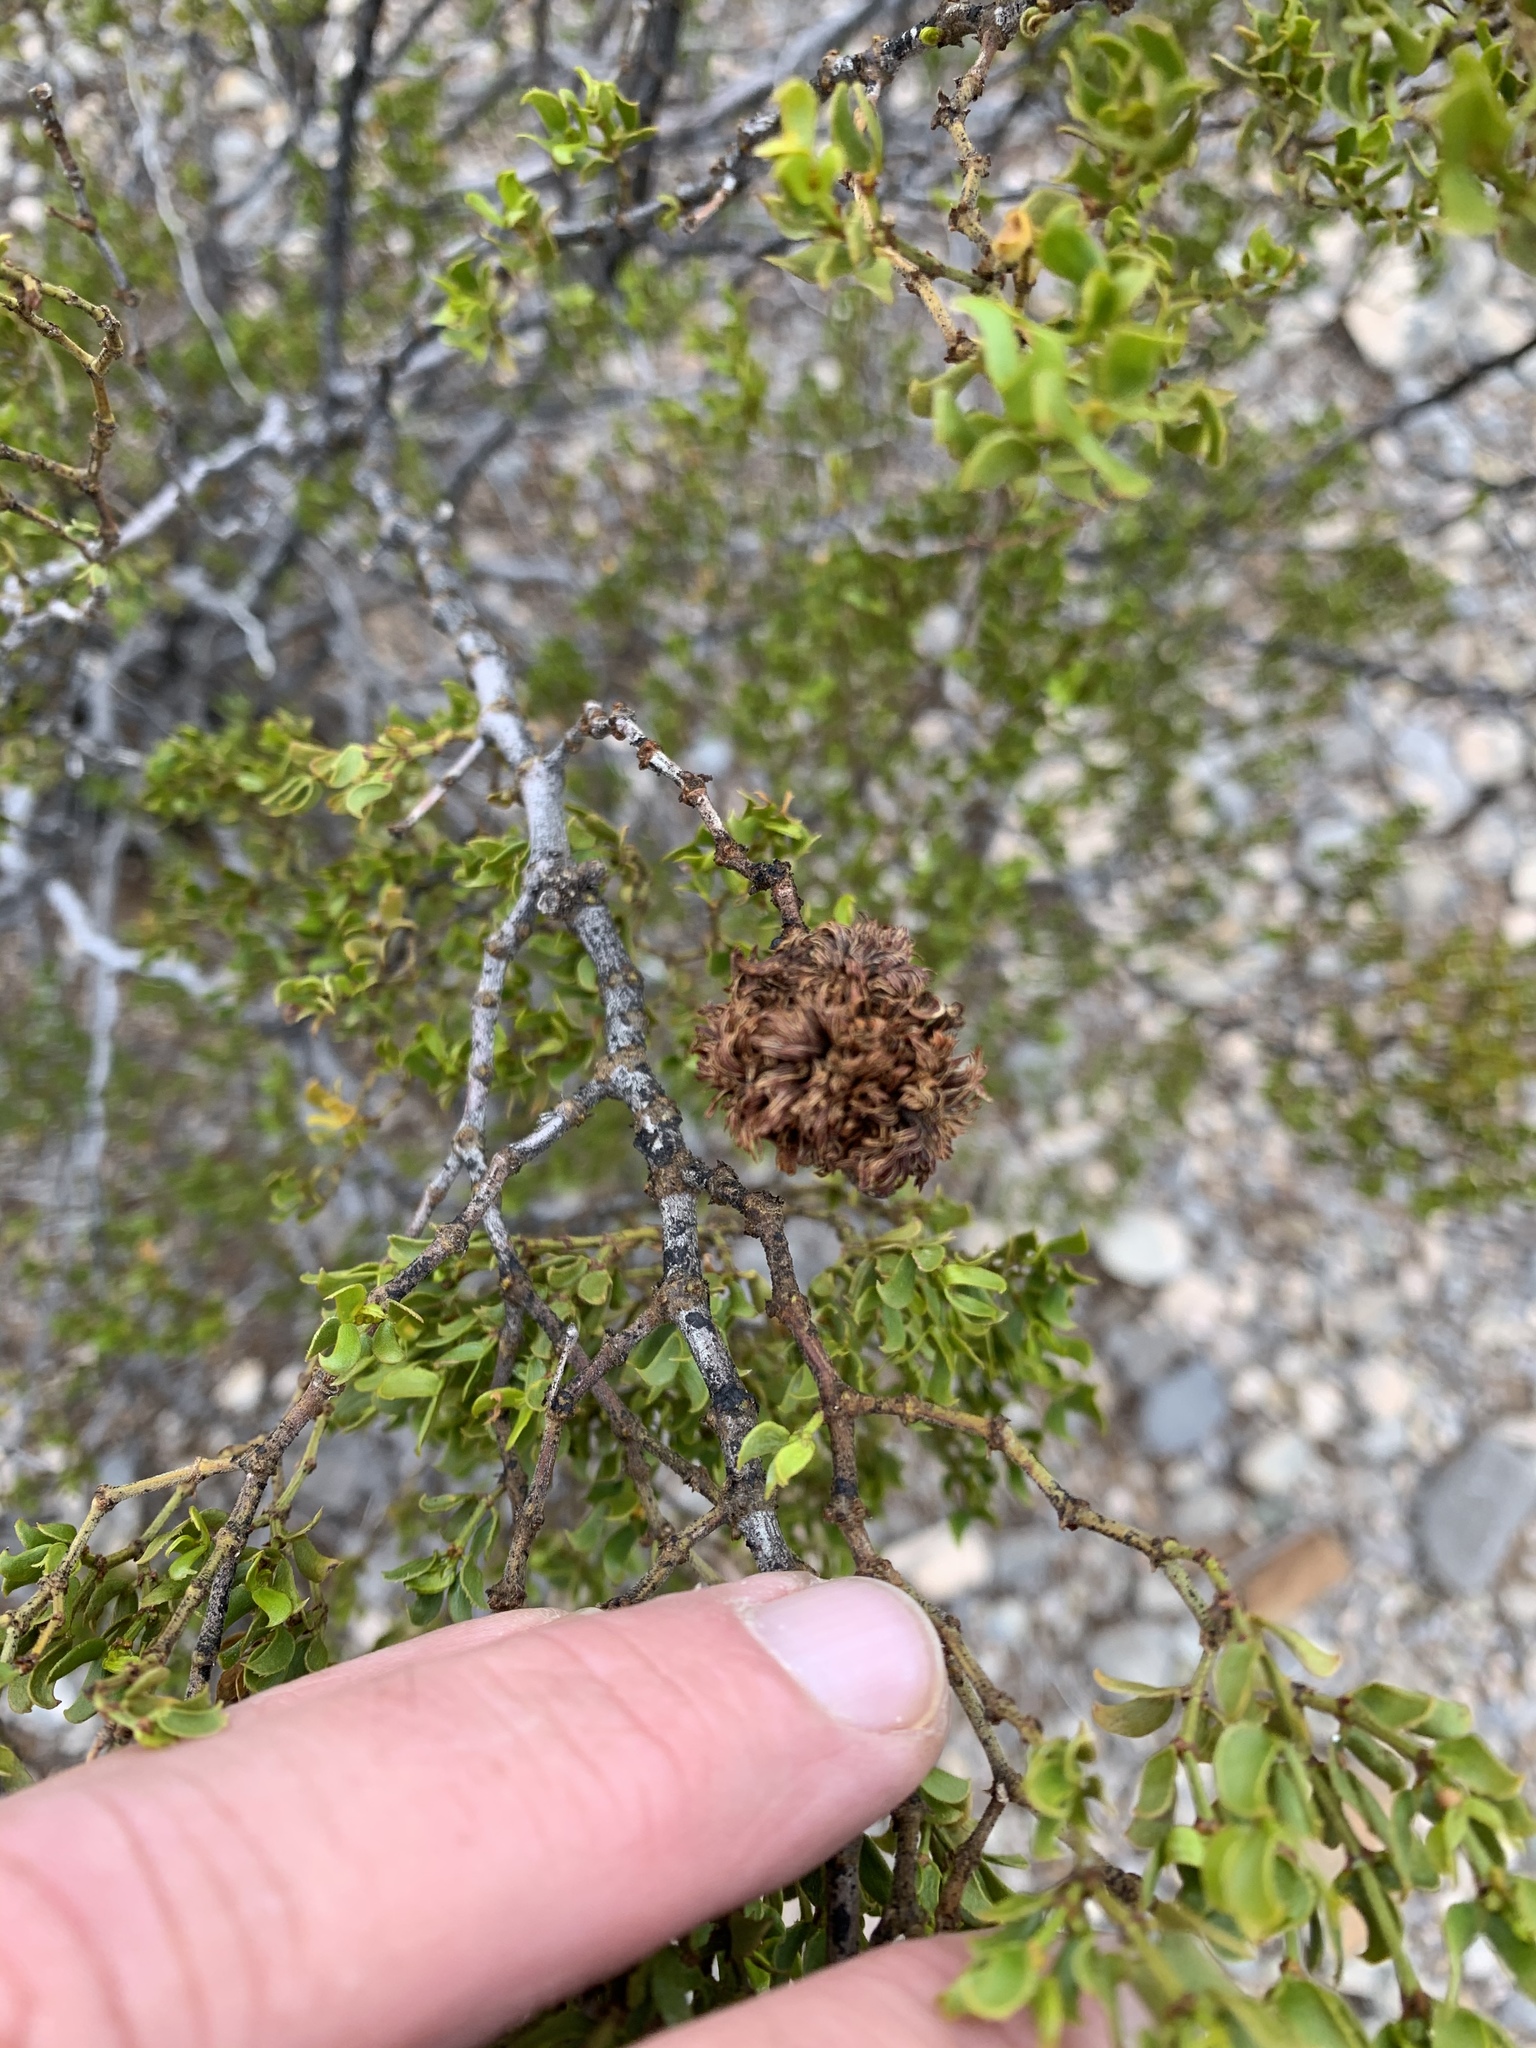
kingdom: Animalia
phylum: Arthropoda
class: Insecta
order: Diptera
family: Cecidomyiidae
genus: Asphondylia
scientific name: Asphondylia auripila
